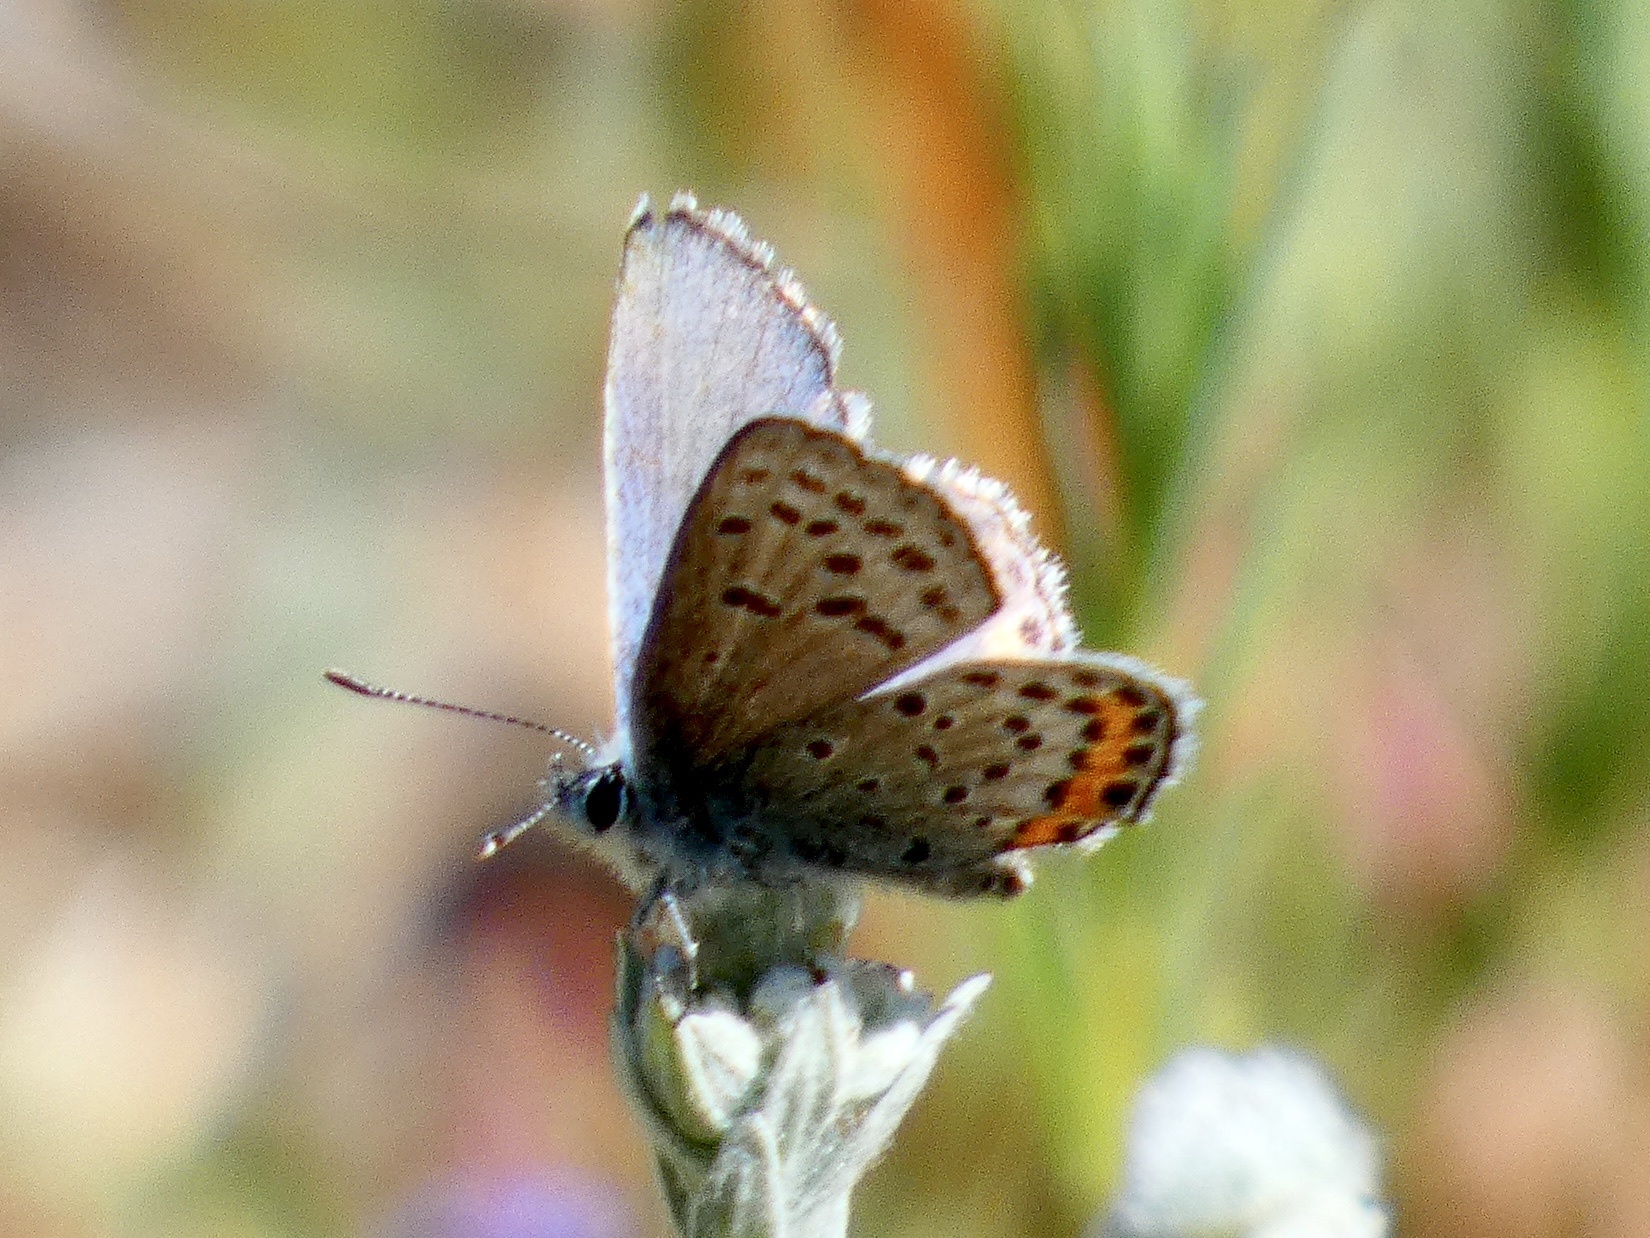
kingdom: Animalia
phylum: Arthropoda
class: Insecta
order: Lepidoptera
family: Lycaenidae
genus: Icaricia
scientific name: Icaricia acmon
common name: Acmon blue
